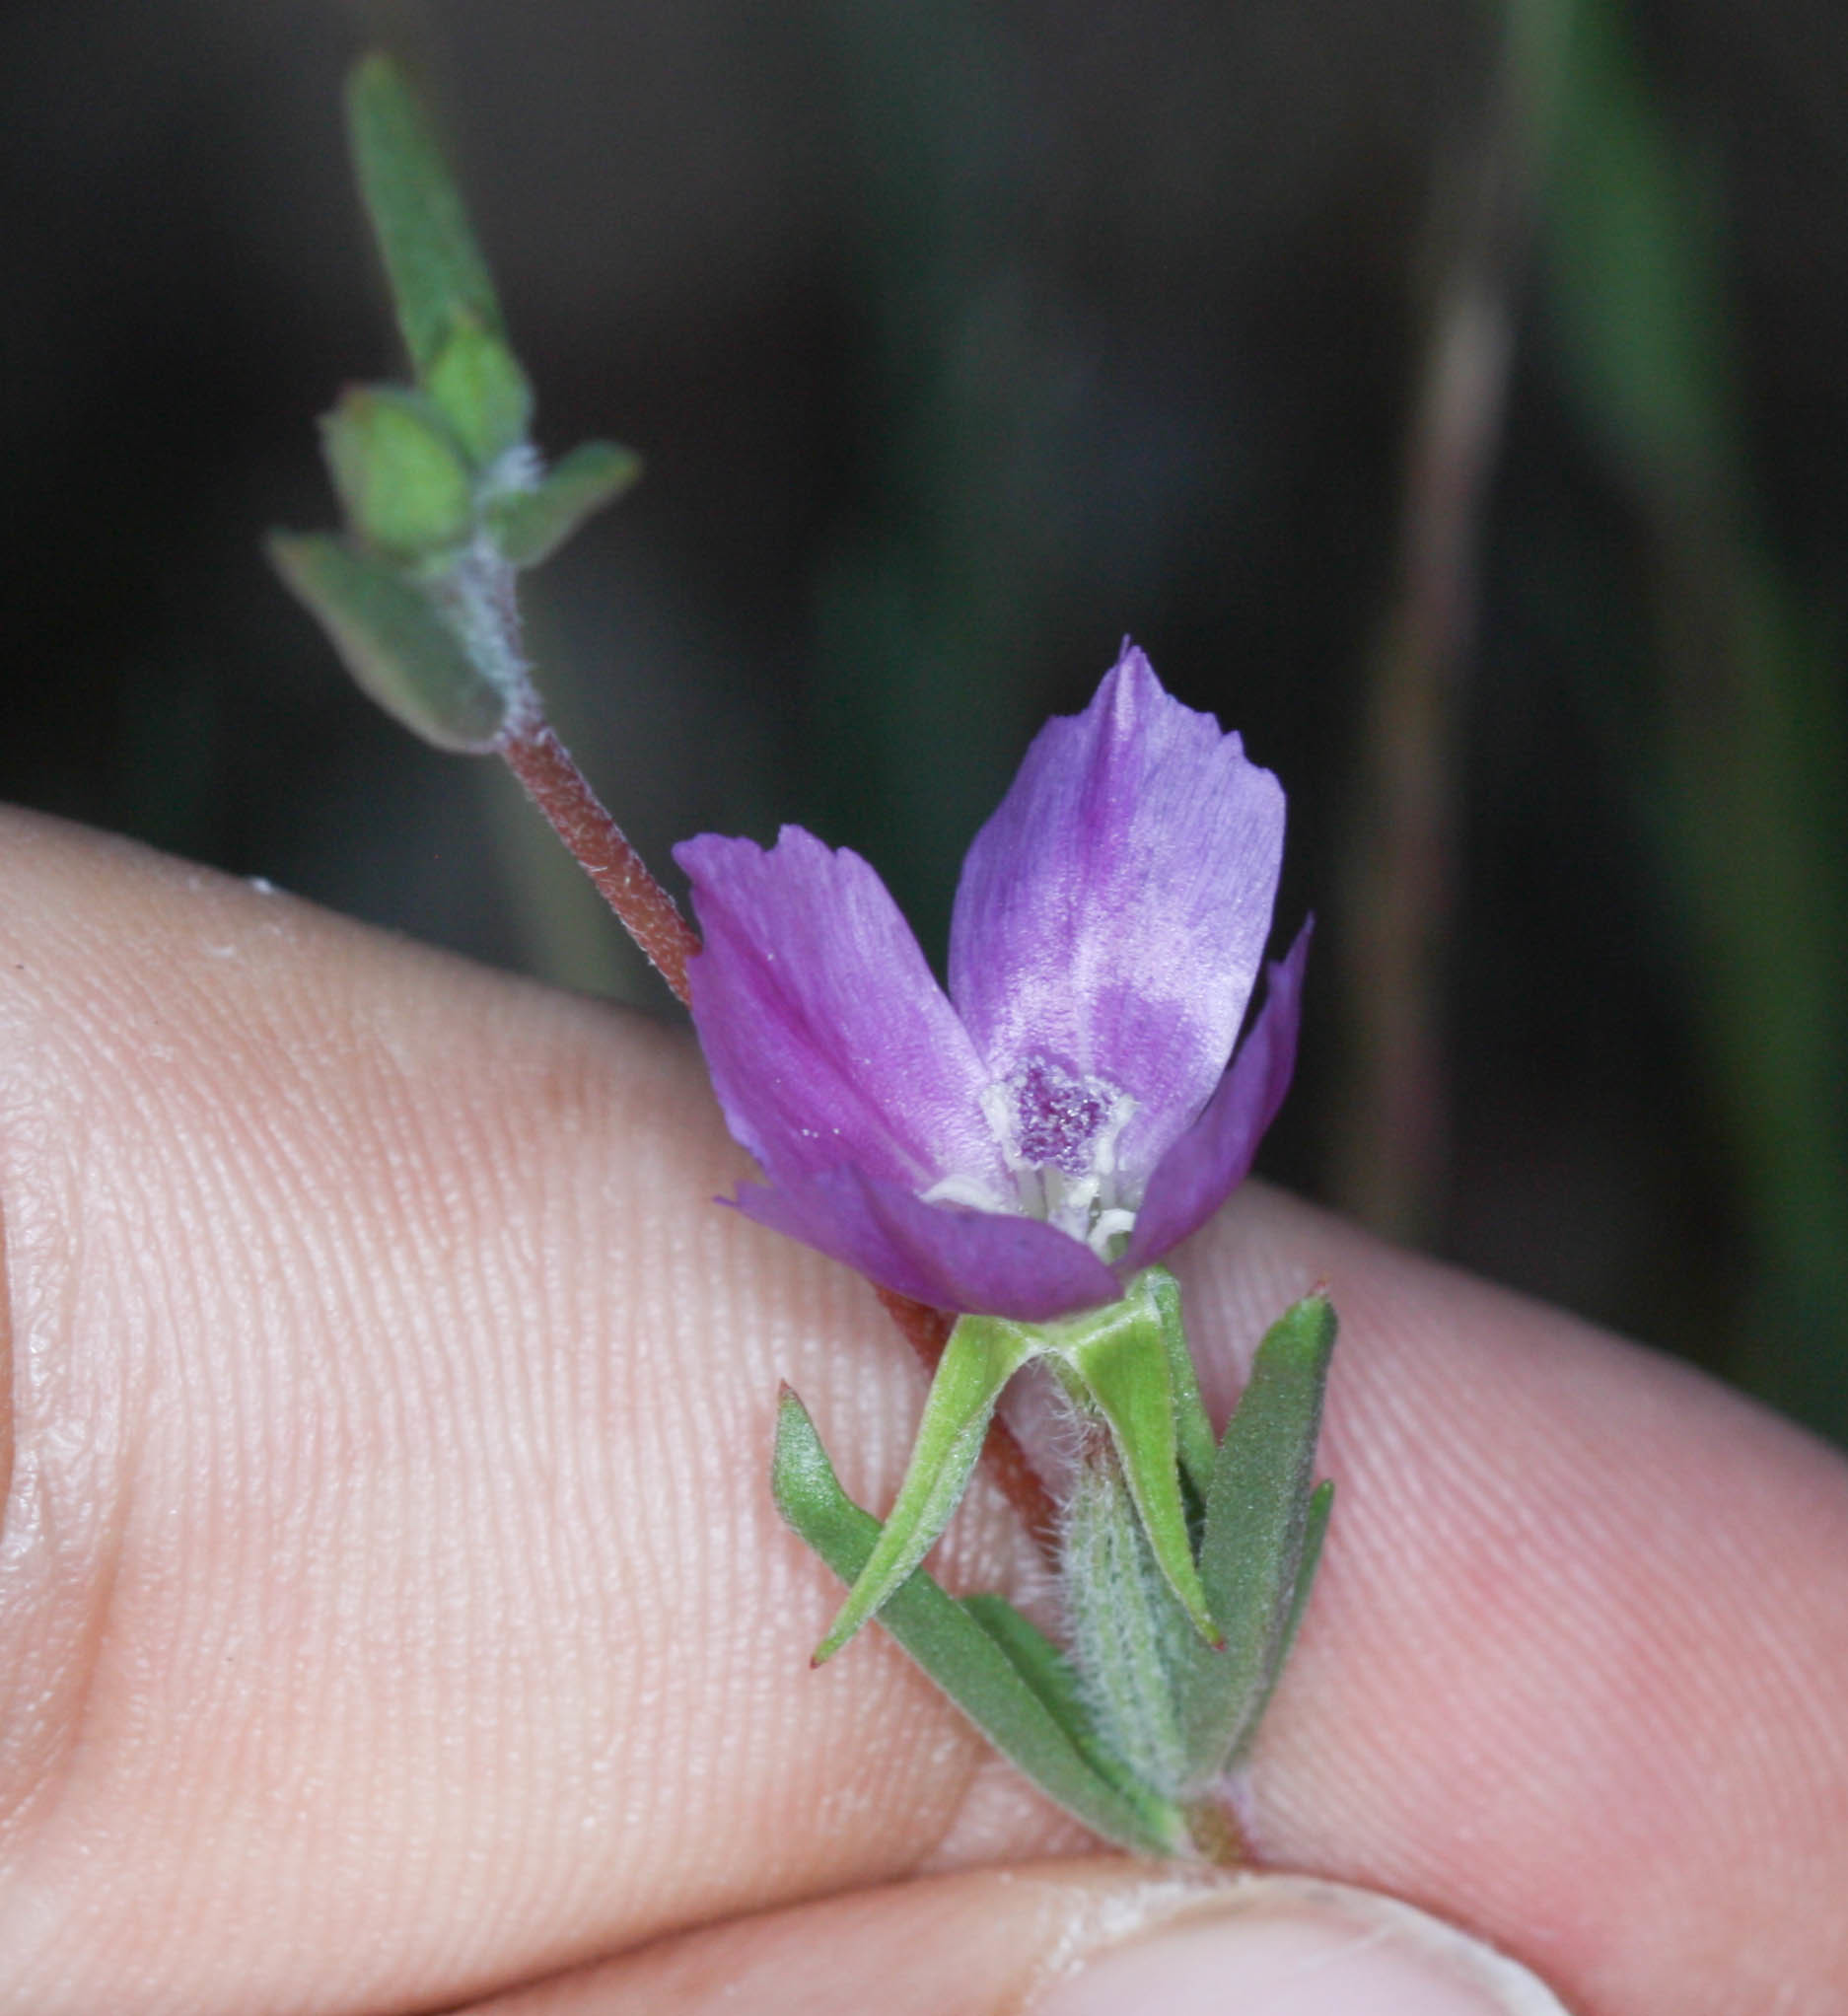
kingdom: Plantae
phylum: Tracheophyta
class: Magnoliopsida
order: Myrtales
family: Onagraceae
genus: Clarkia
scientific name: Clarkia purpurea
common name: Purple clarkia
